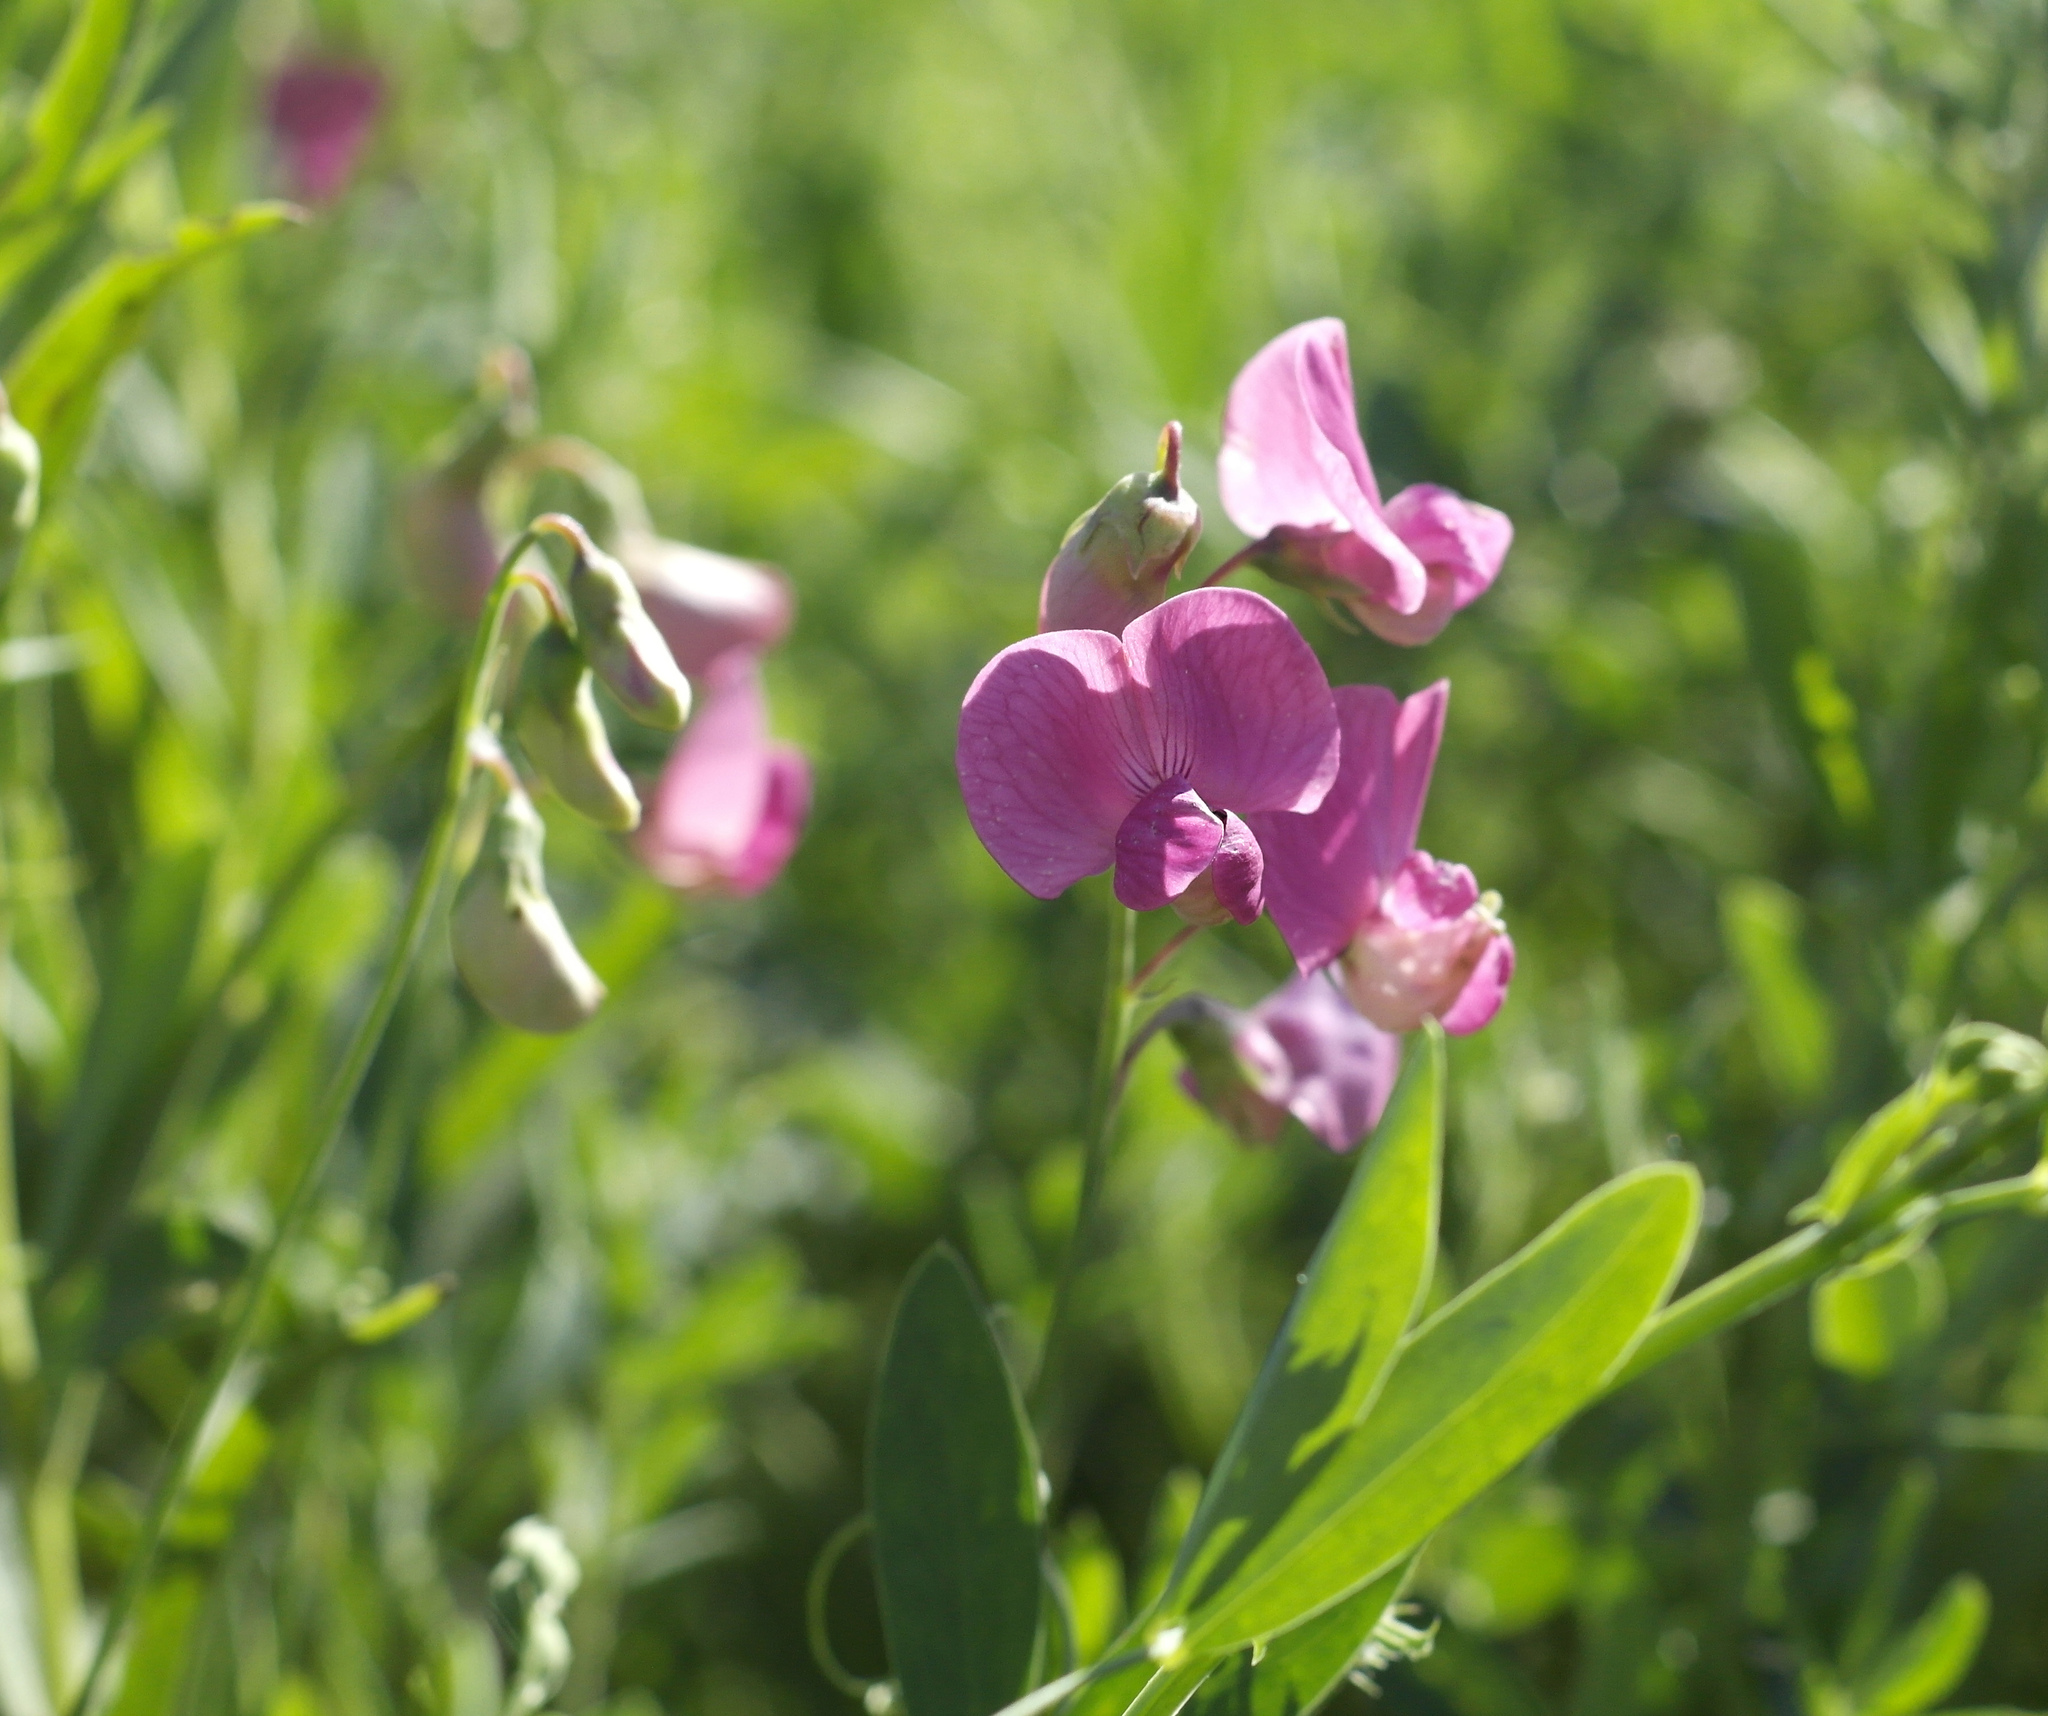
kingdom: Plantae
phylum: Tracheophyta
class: Magnoliopsida
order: Fabales
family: Fabaceae
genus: Lathyrus
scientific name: Lathyrus tuberosus
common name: Tuberous pea
